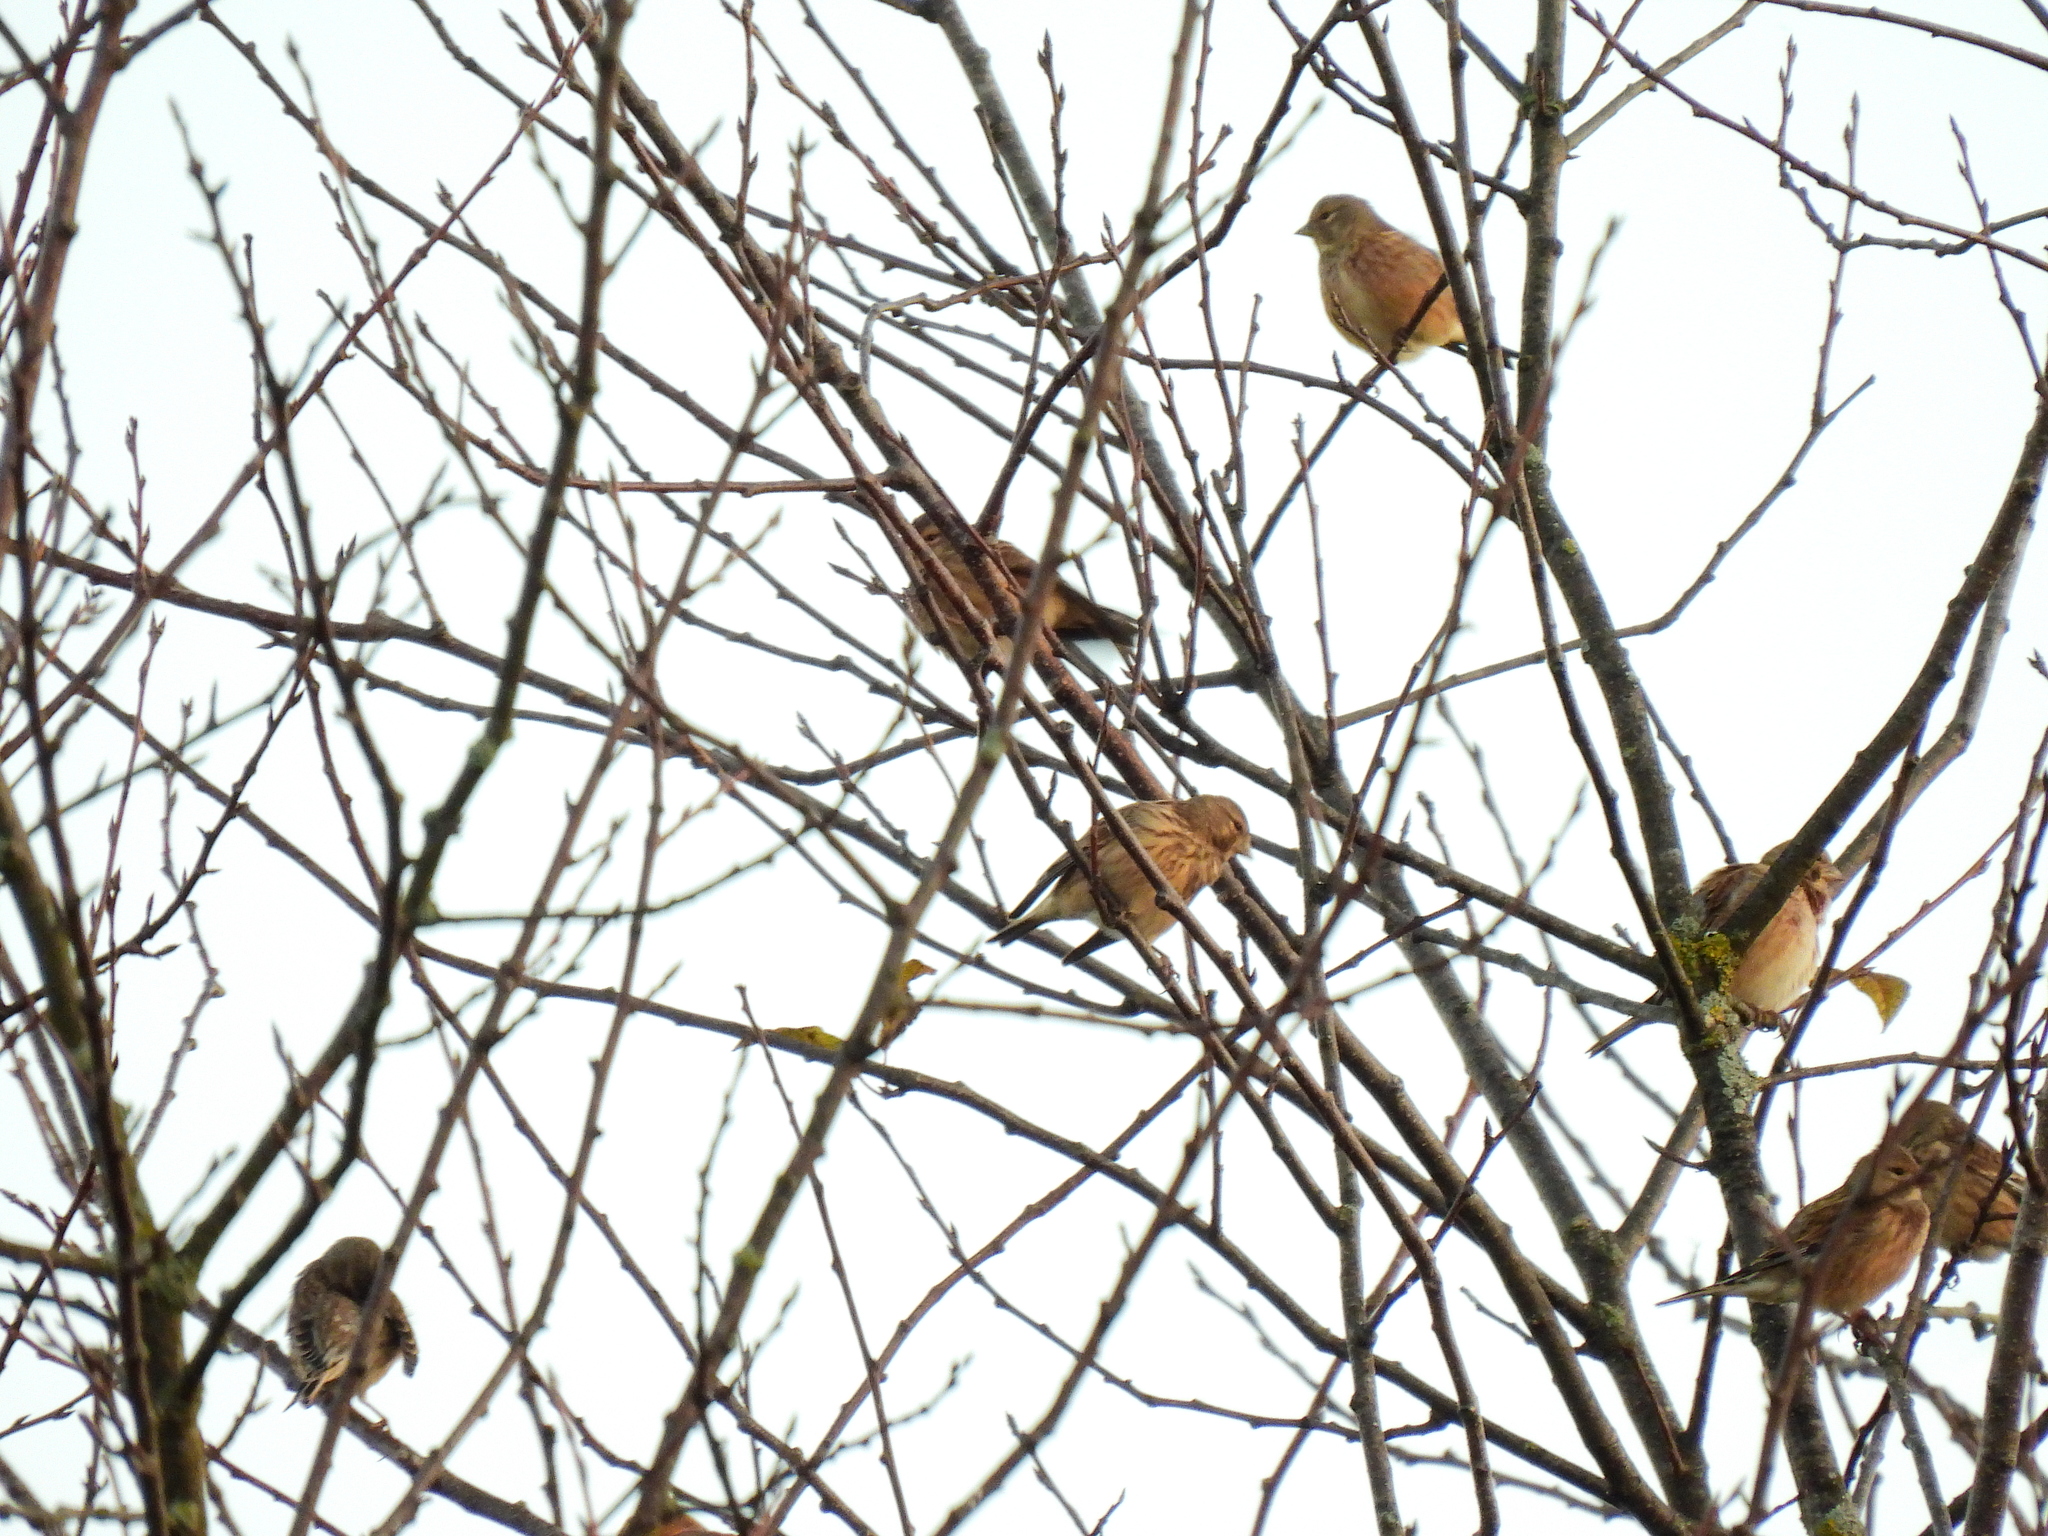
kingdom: Animalia
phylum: Chordata
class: Aves
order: Passeriformes
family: Fringillidae
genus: Linaria
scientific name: Linaria cannabina
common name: Common linnet
